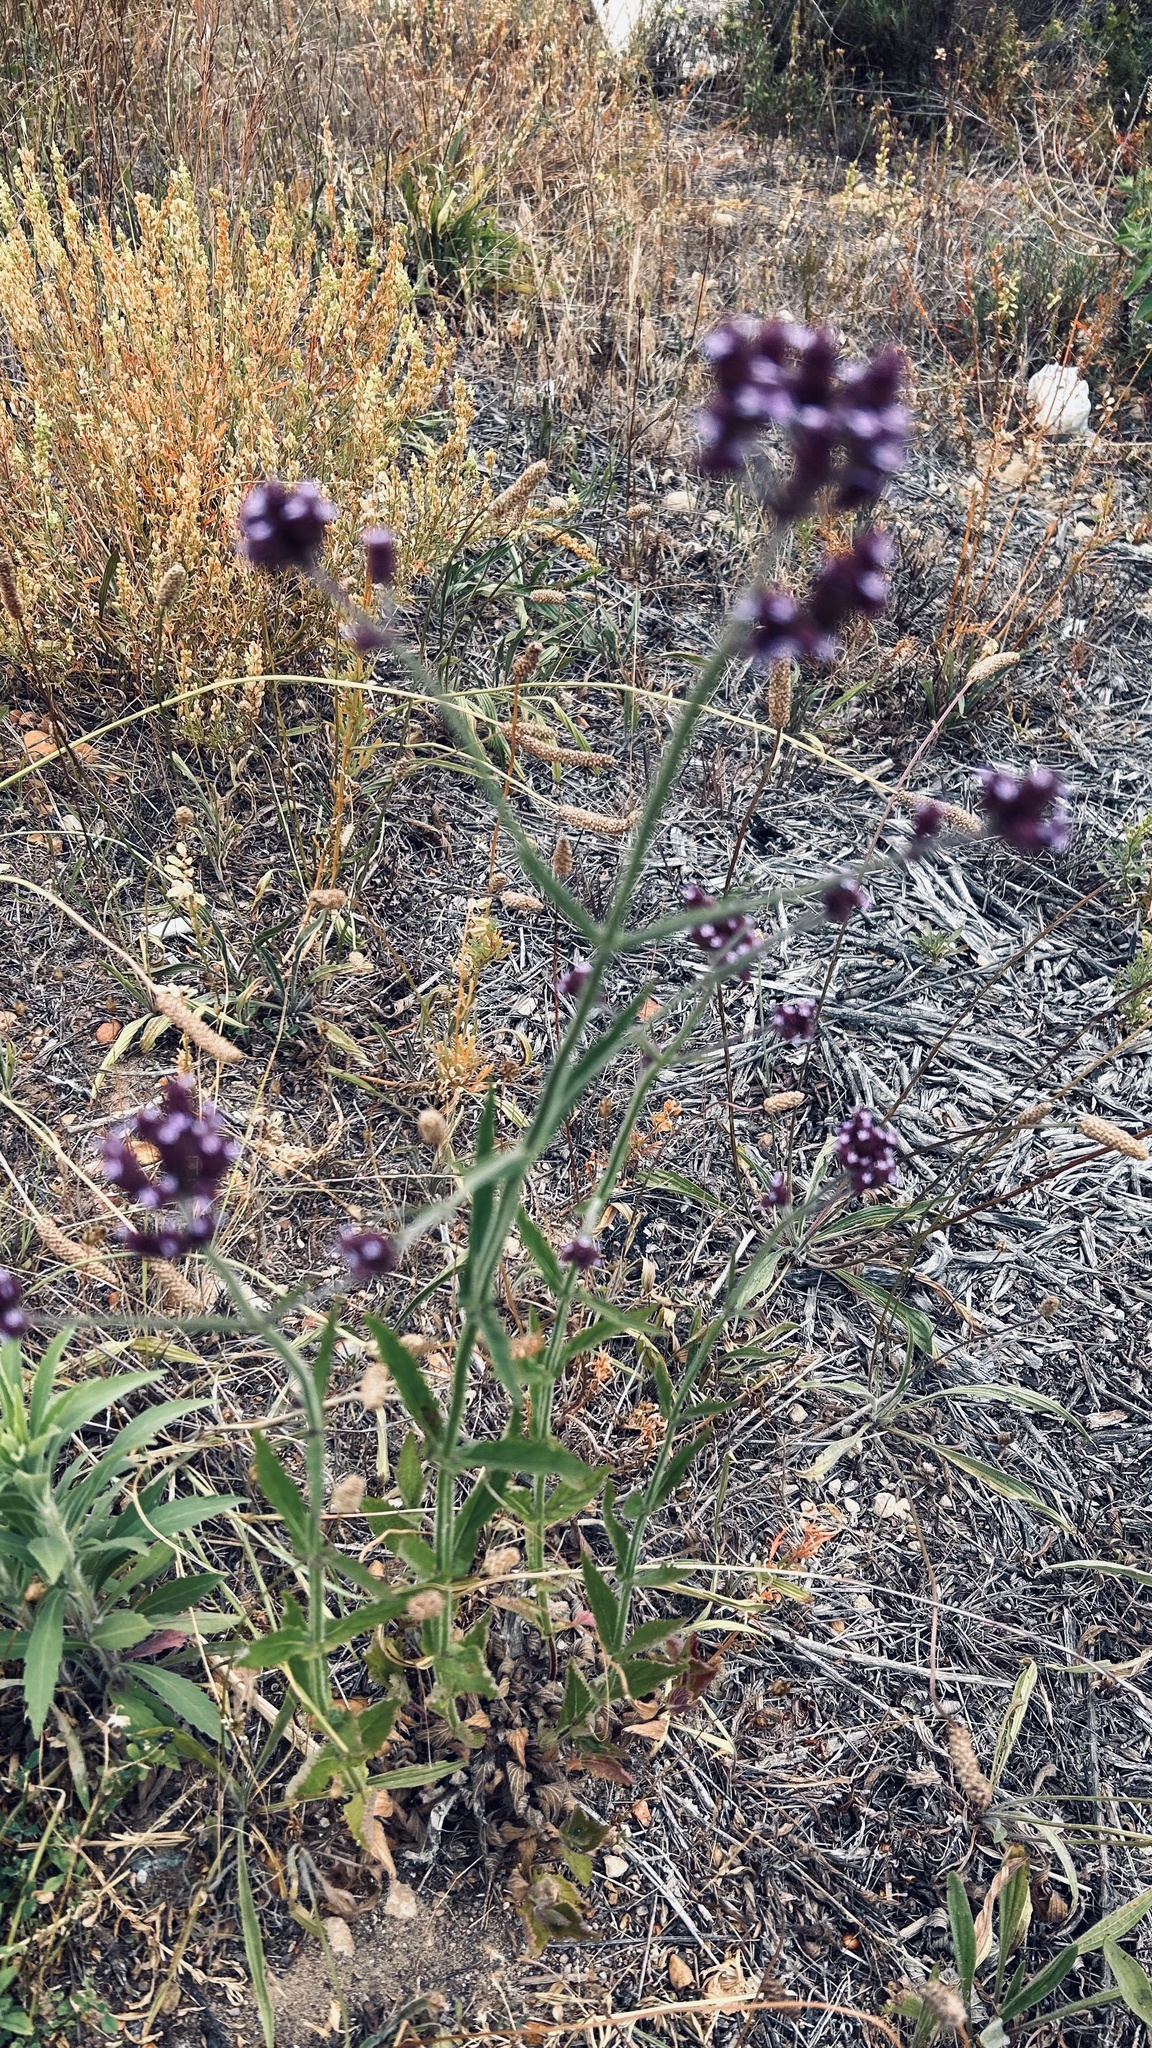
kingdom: Plantae
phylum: Tracheophyta
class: Magnoliopsida
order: Lamiales
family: Verbenaceae
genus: Verbena
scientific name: Verbena bonariensis
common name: Purpletop vervain
